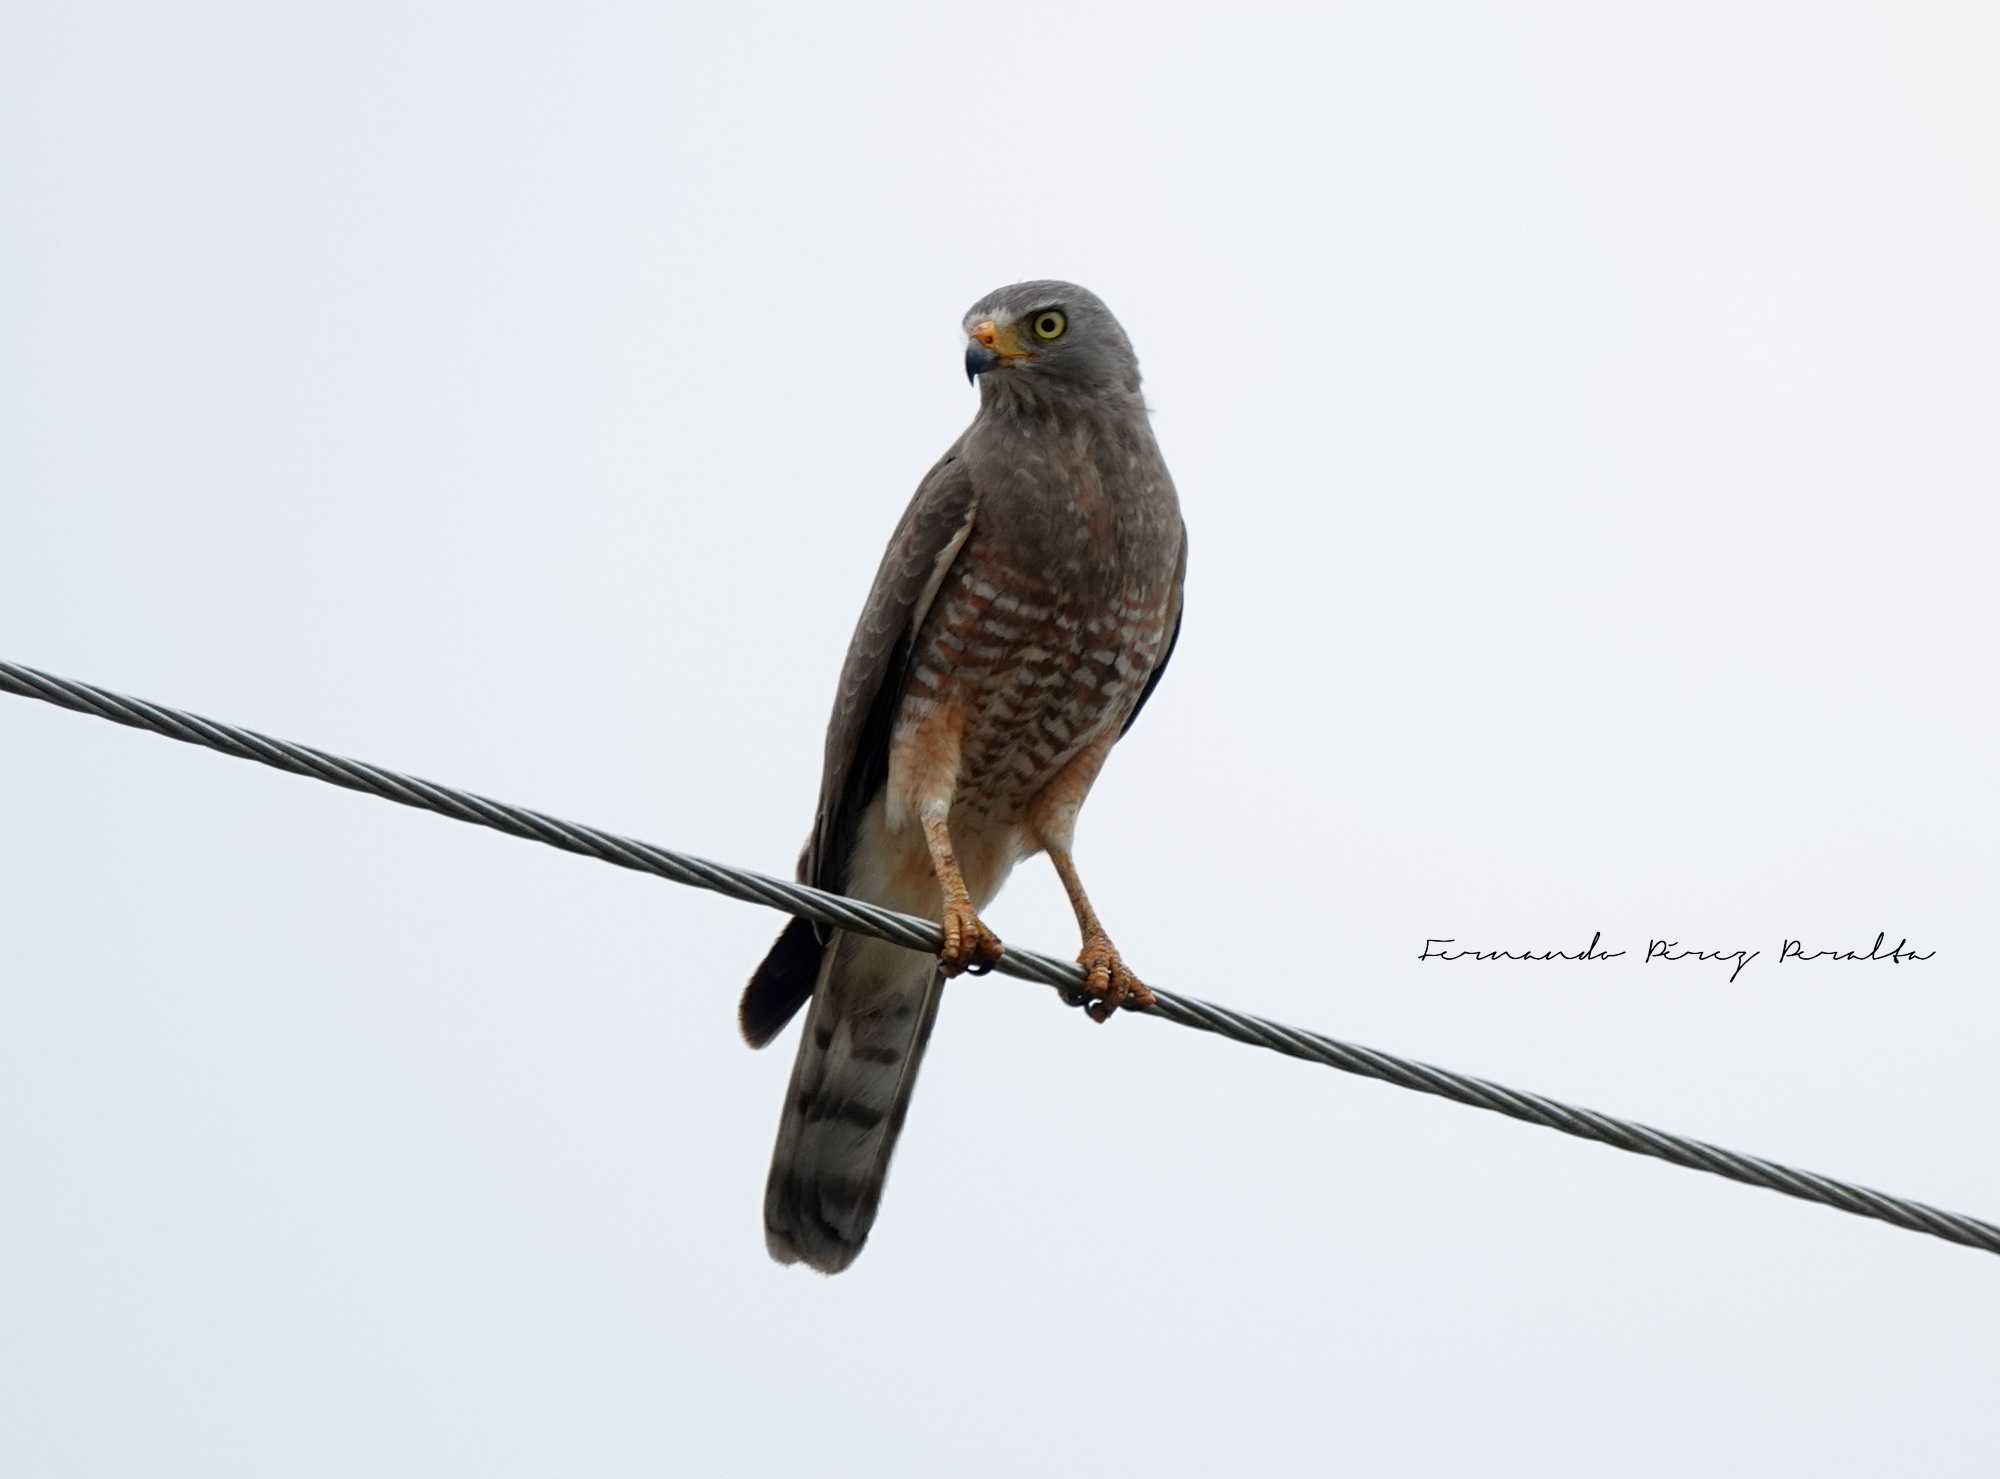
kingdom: Animalia
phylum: Chordata
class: Aves
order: Accipitriformes
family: Accipitridae
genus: Rupornis
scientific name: Rupornis magnirostris
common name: Roadside hawk
